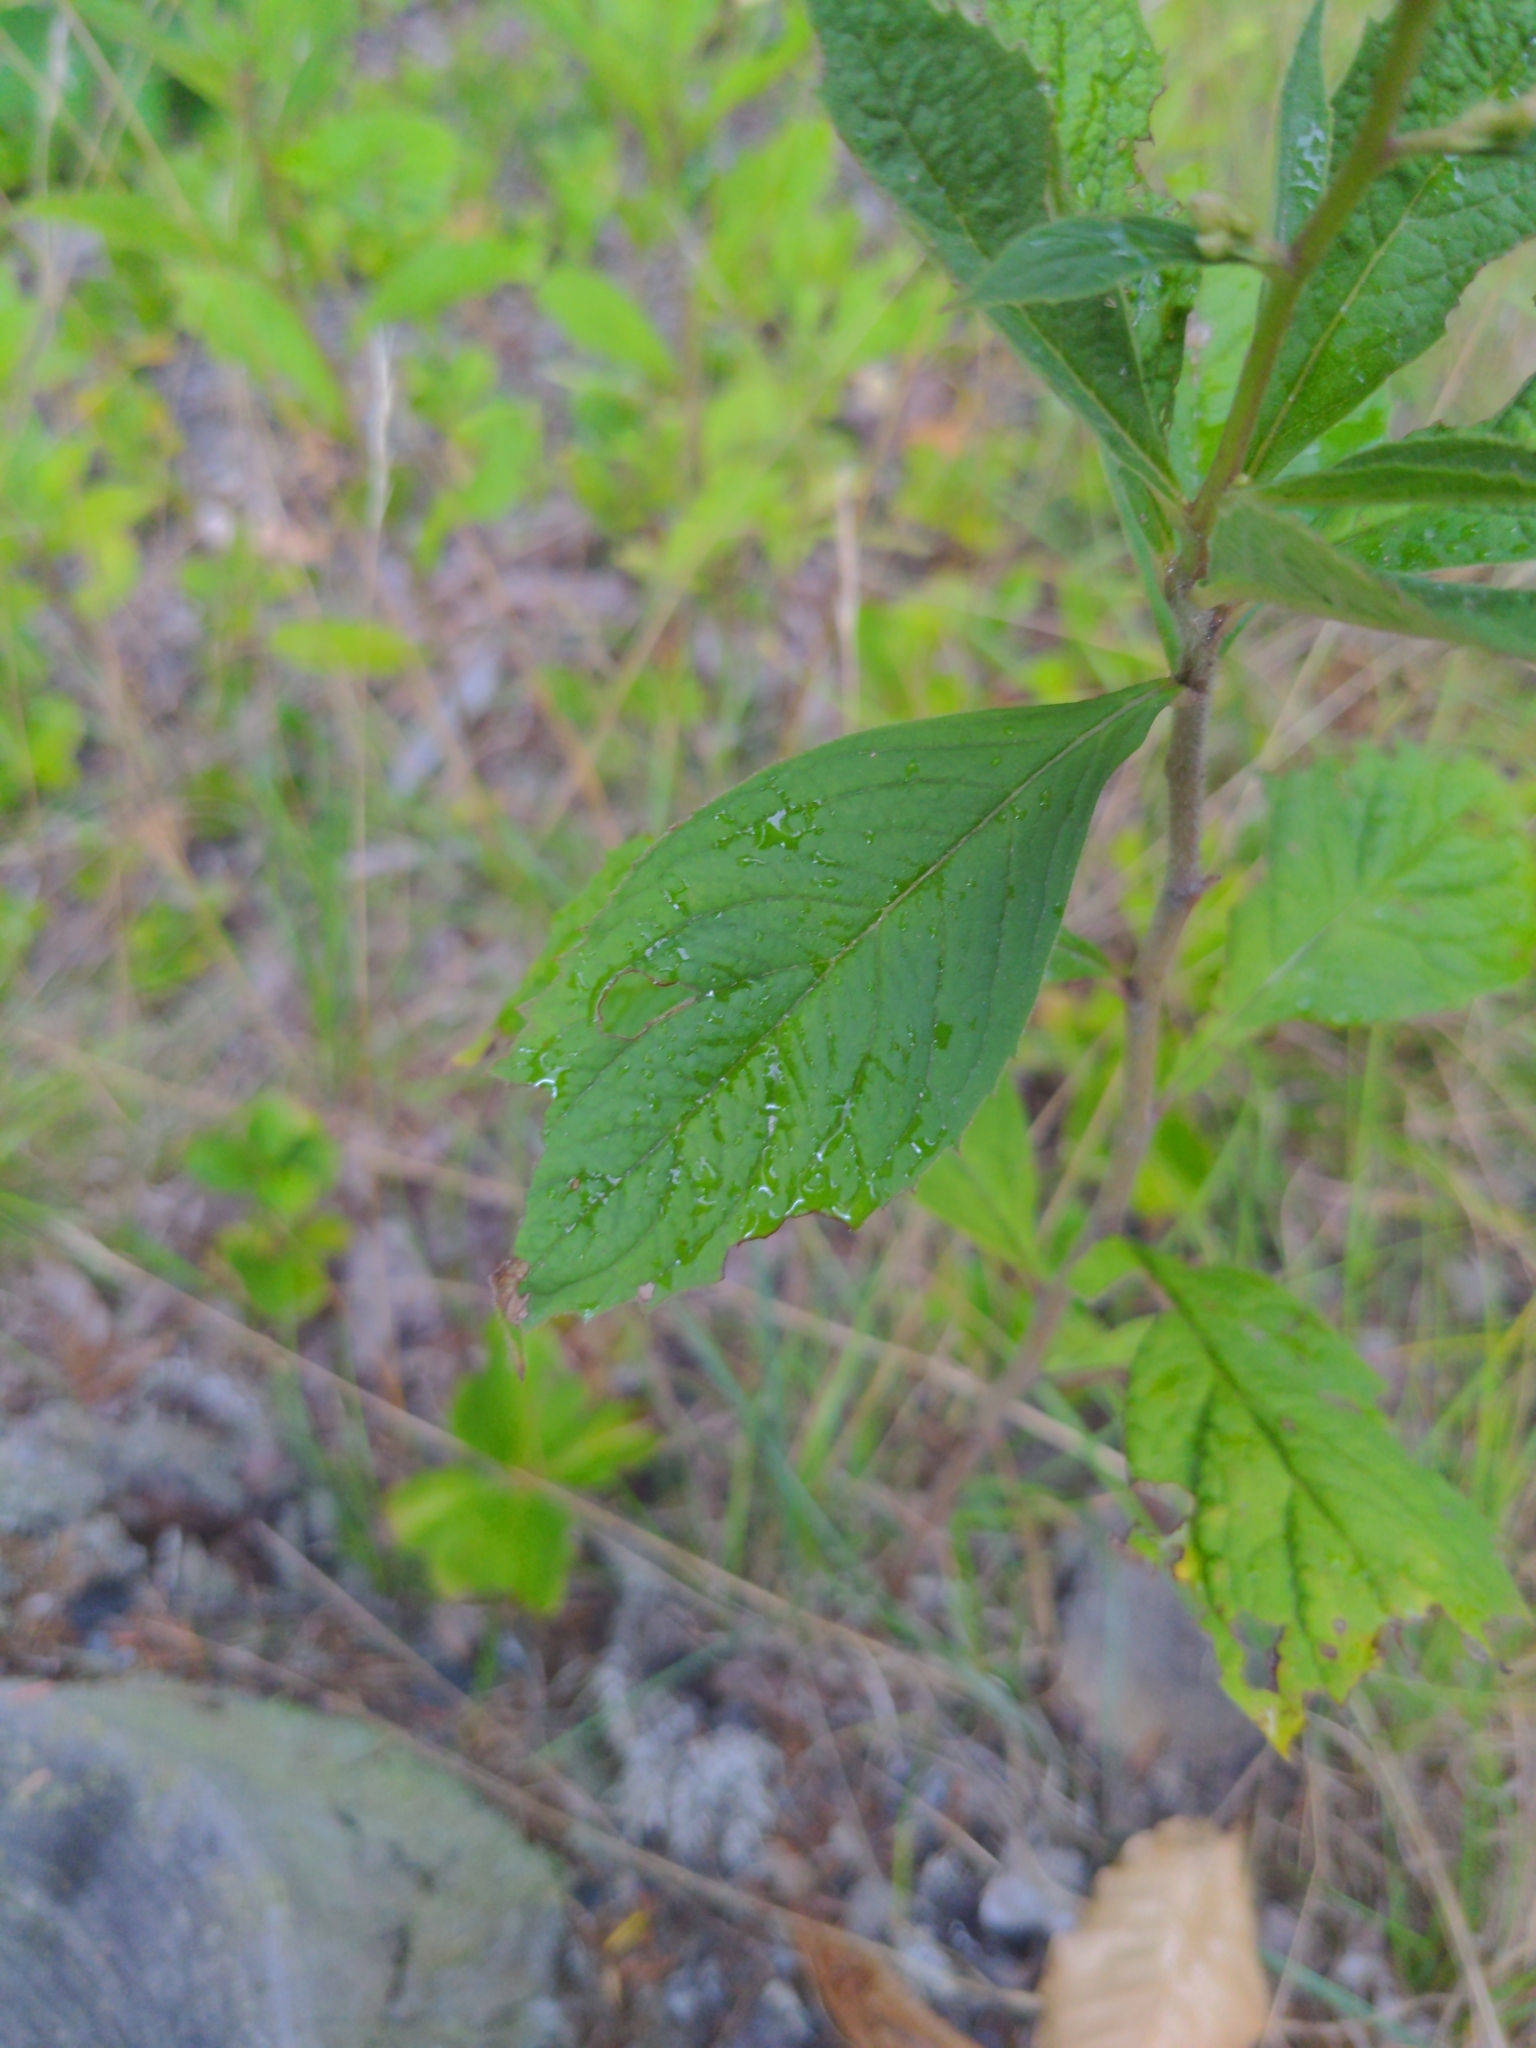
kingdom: Plantae
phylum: Tracheophyta
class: Magnoliopsida
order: Asterales
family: Asteraceae
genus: Oclemena
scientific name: Oclemena acuminata
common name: Mountain aster
